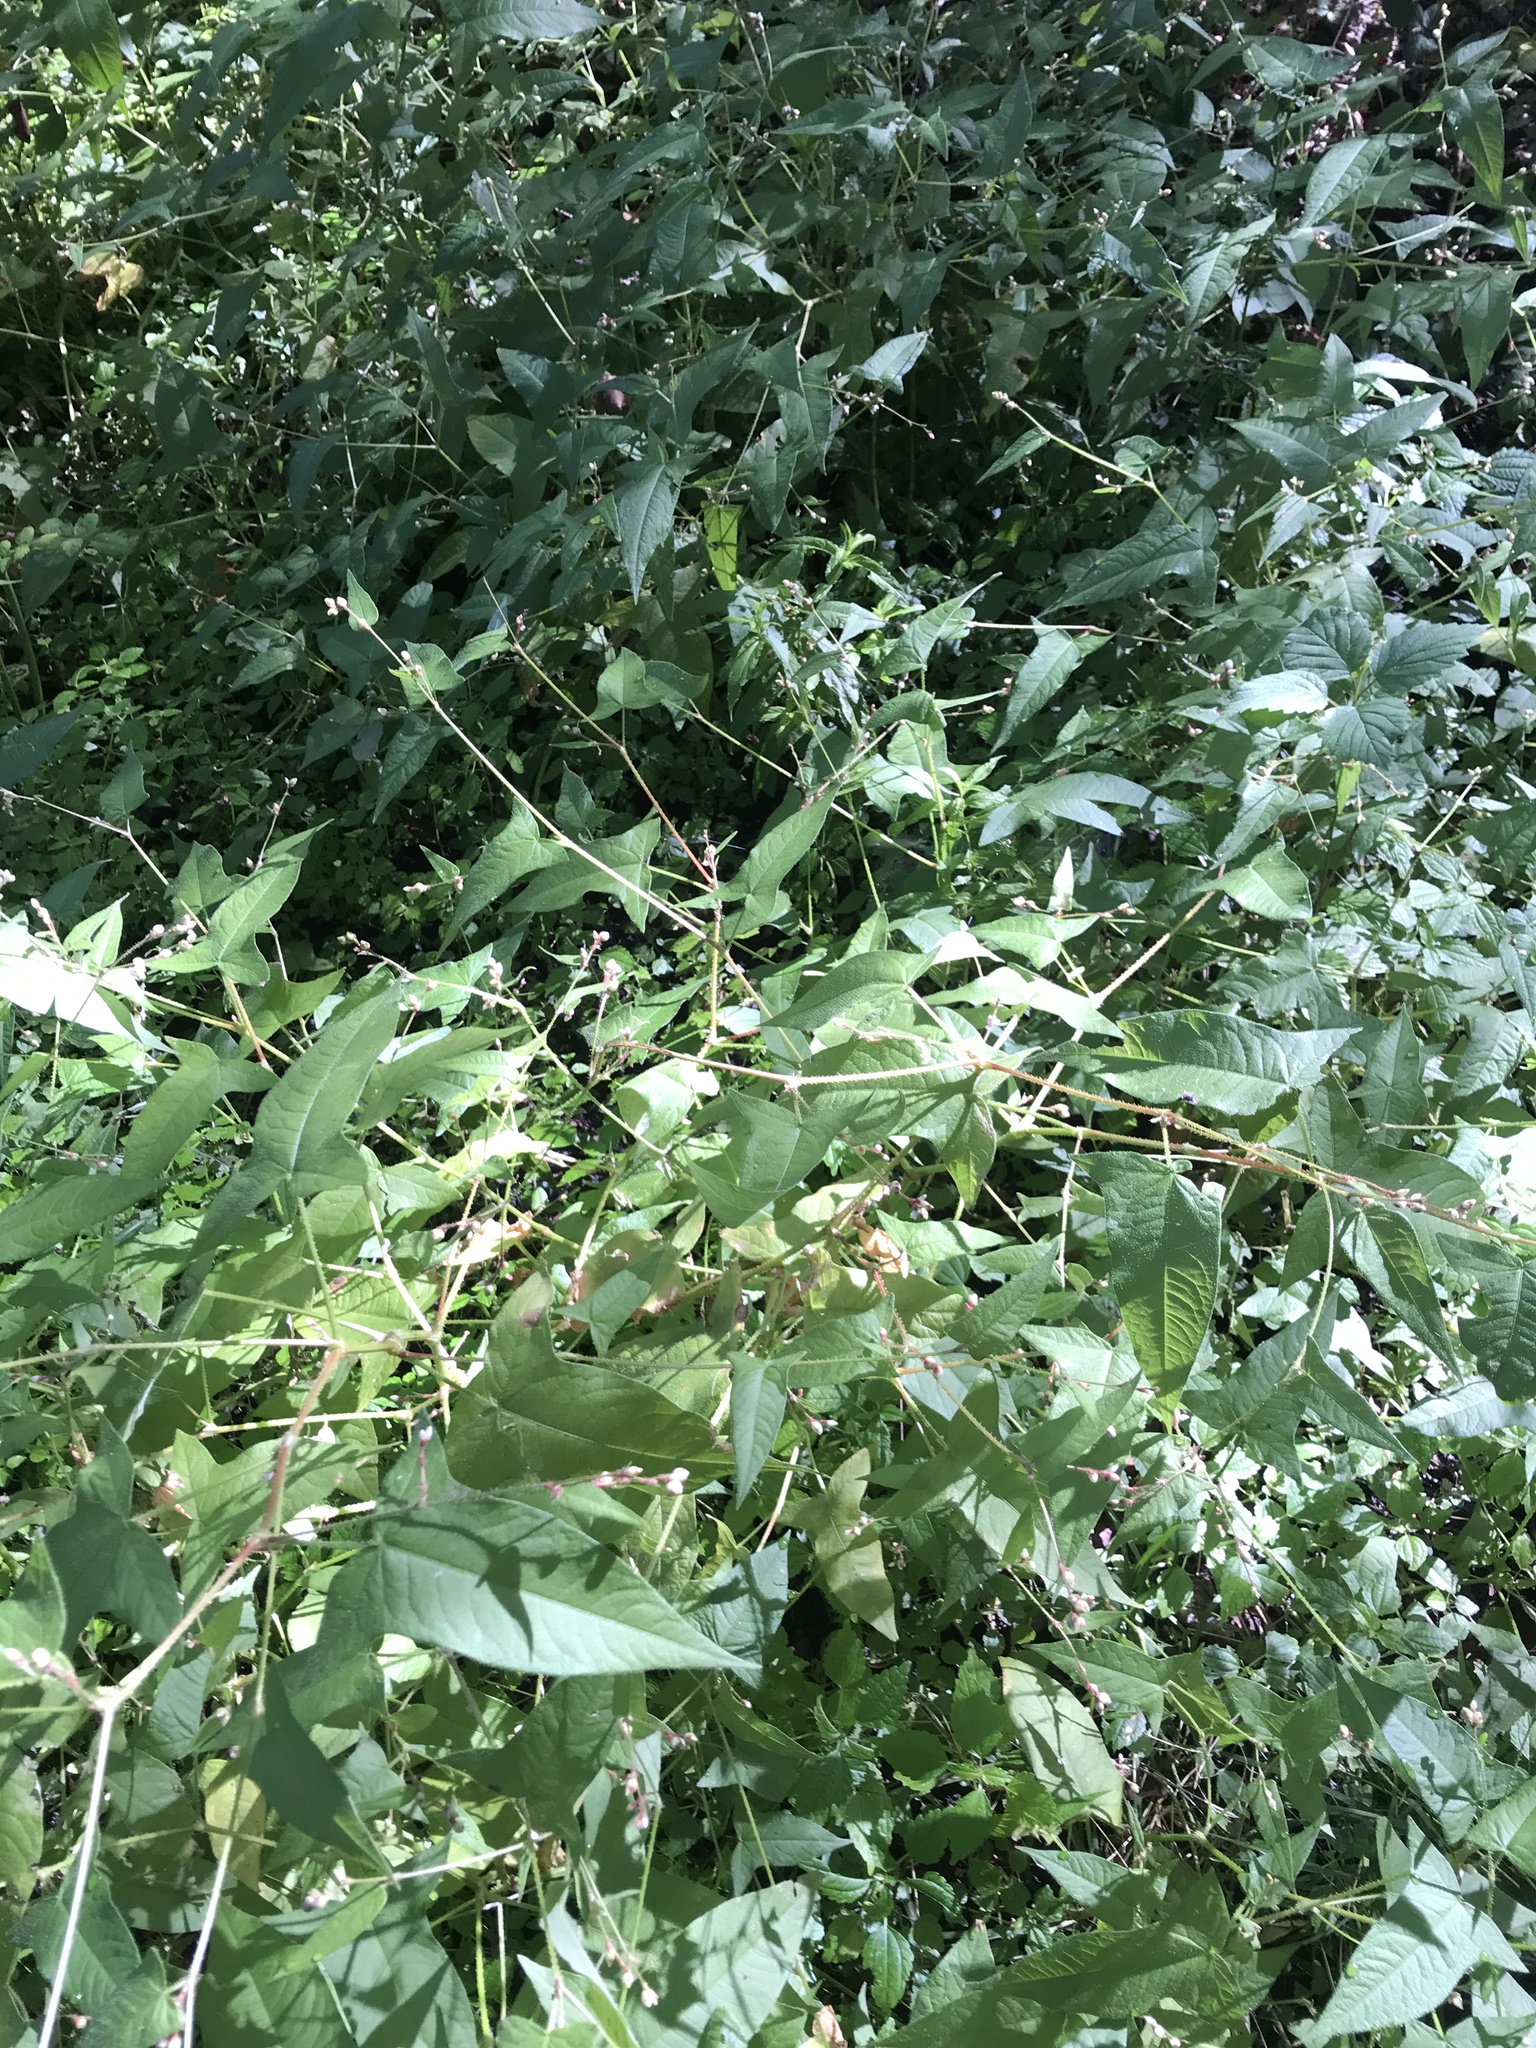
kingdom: Plantae
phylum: Tracheophyta
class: Magnoliopsida
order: Caryophyllales
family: Polygonaceae
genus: Persicaria
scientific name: Persicaria arifolia
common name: Halberd-leaved tear-thumb
